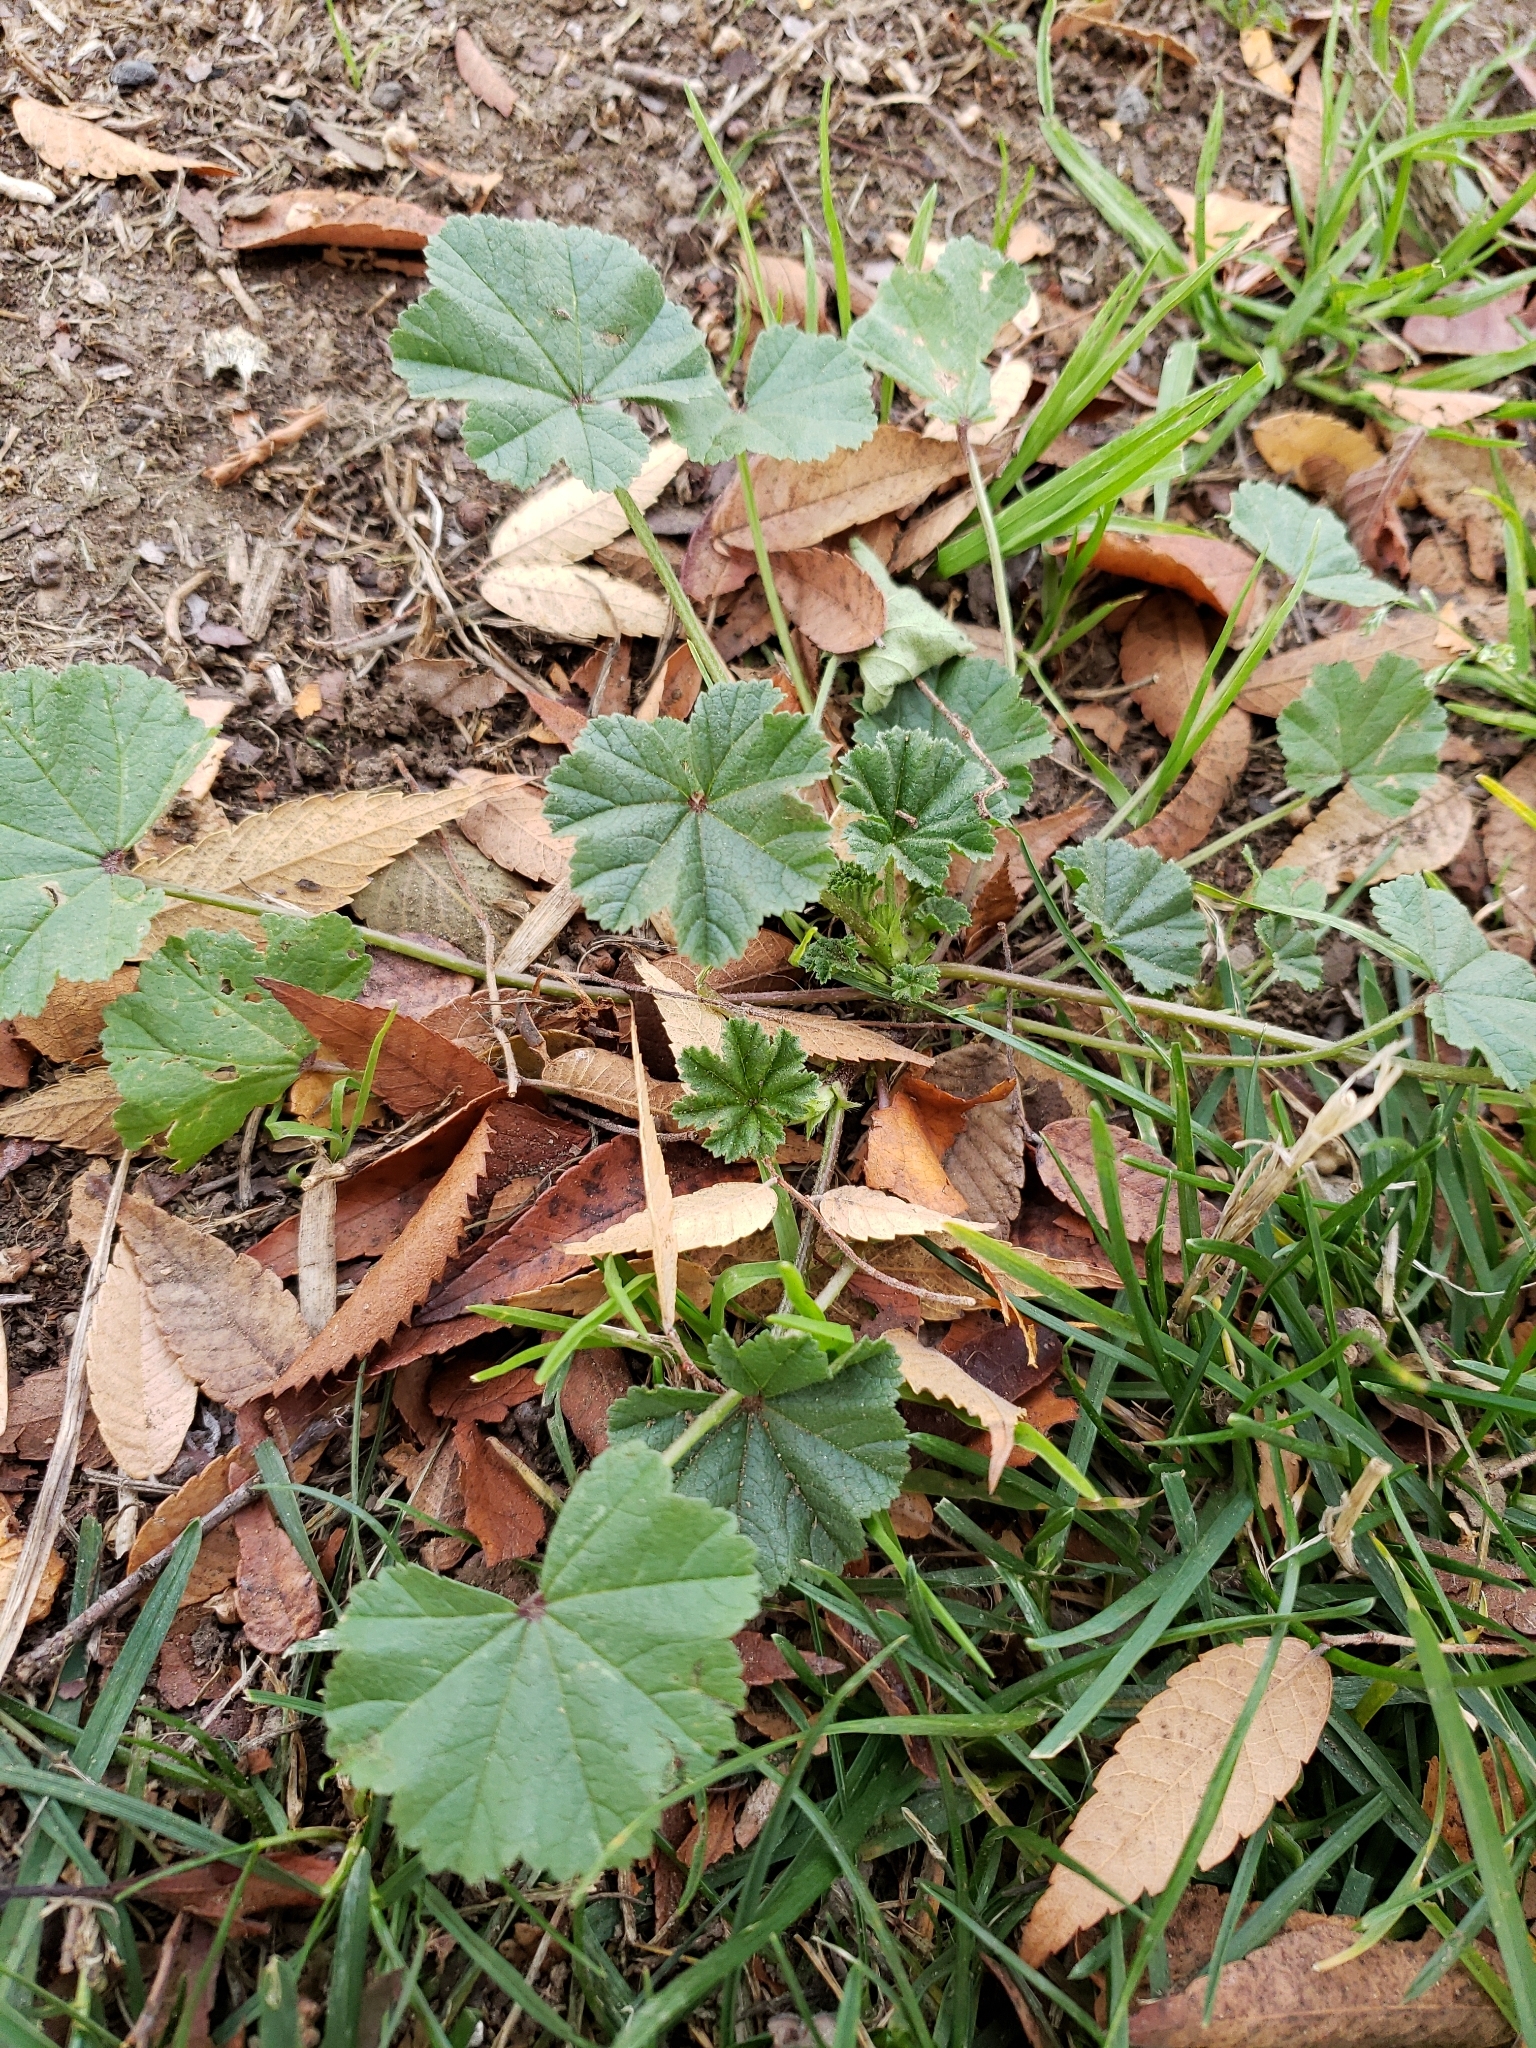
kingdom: Plantae
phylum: Tracheophyta
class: Magnoliopsida
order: Malvales
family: Malvaceae
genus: Malva
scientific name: Malva
